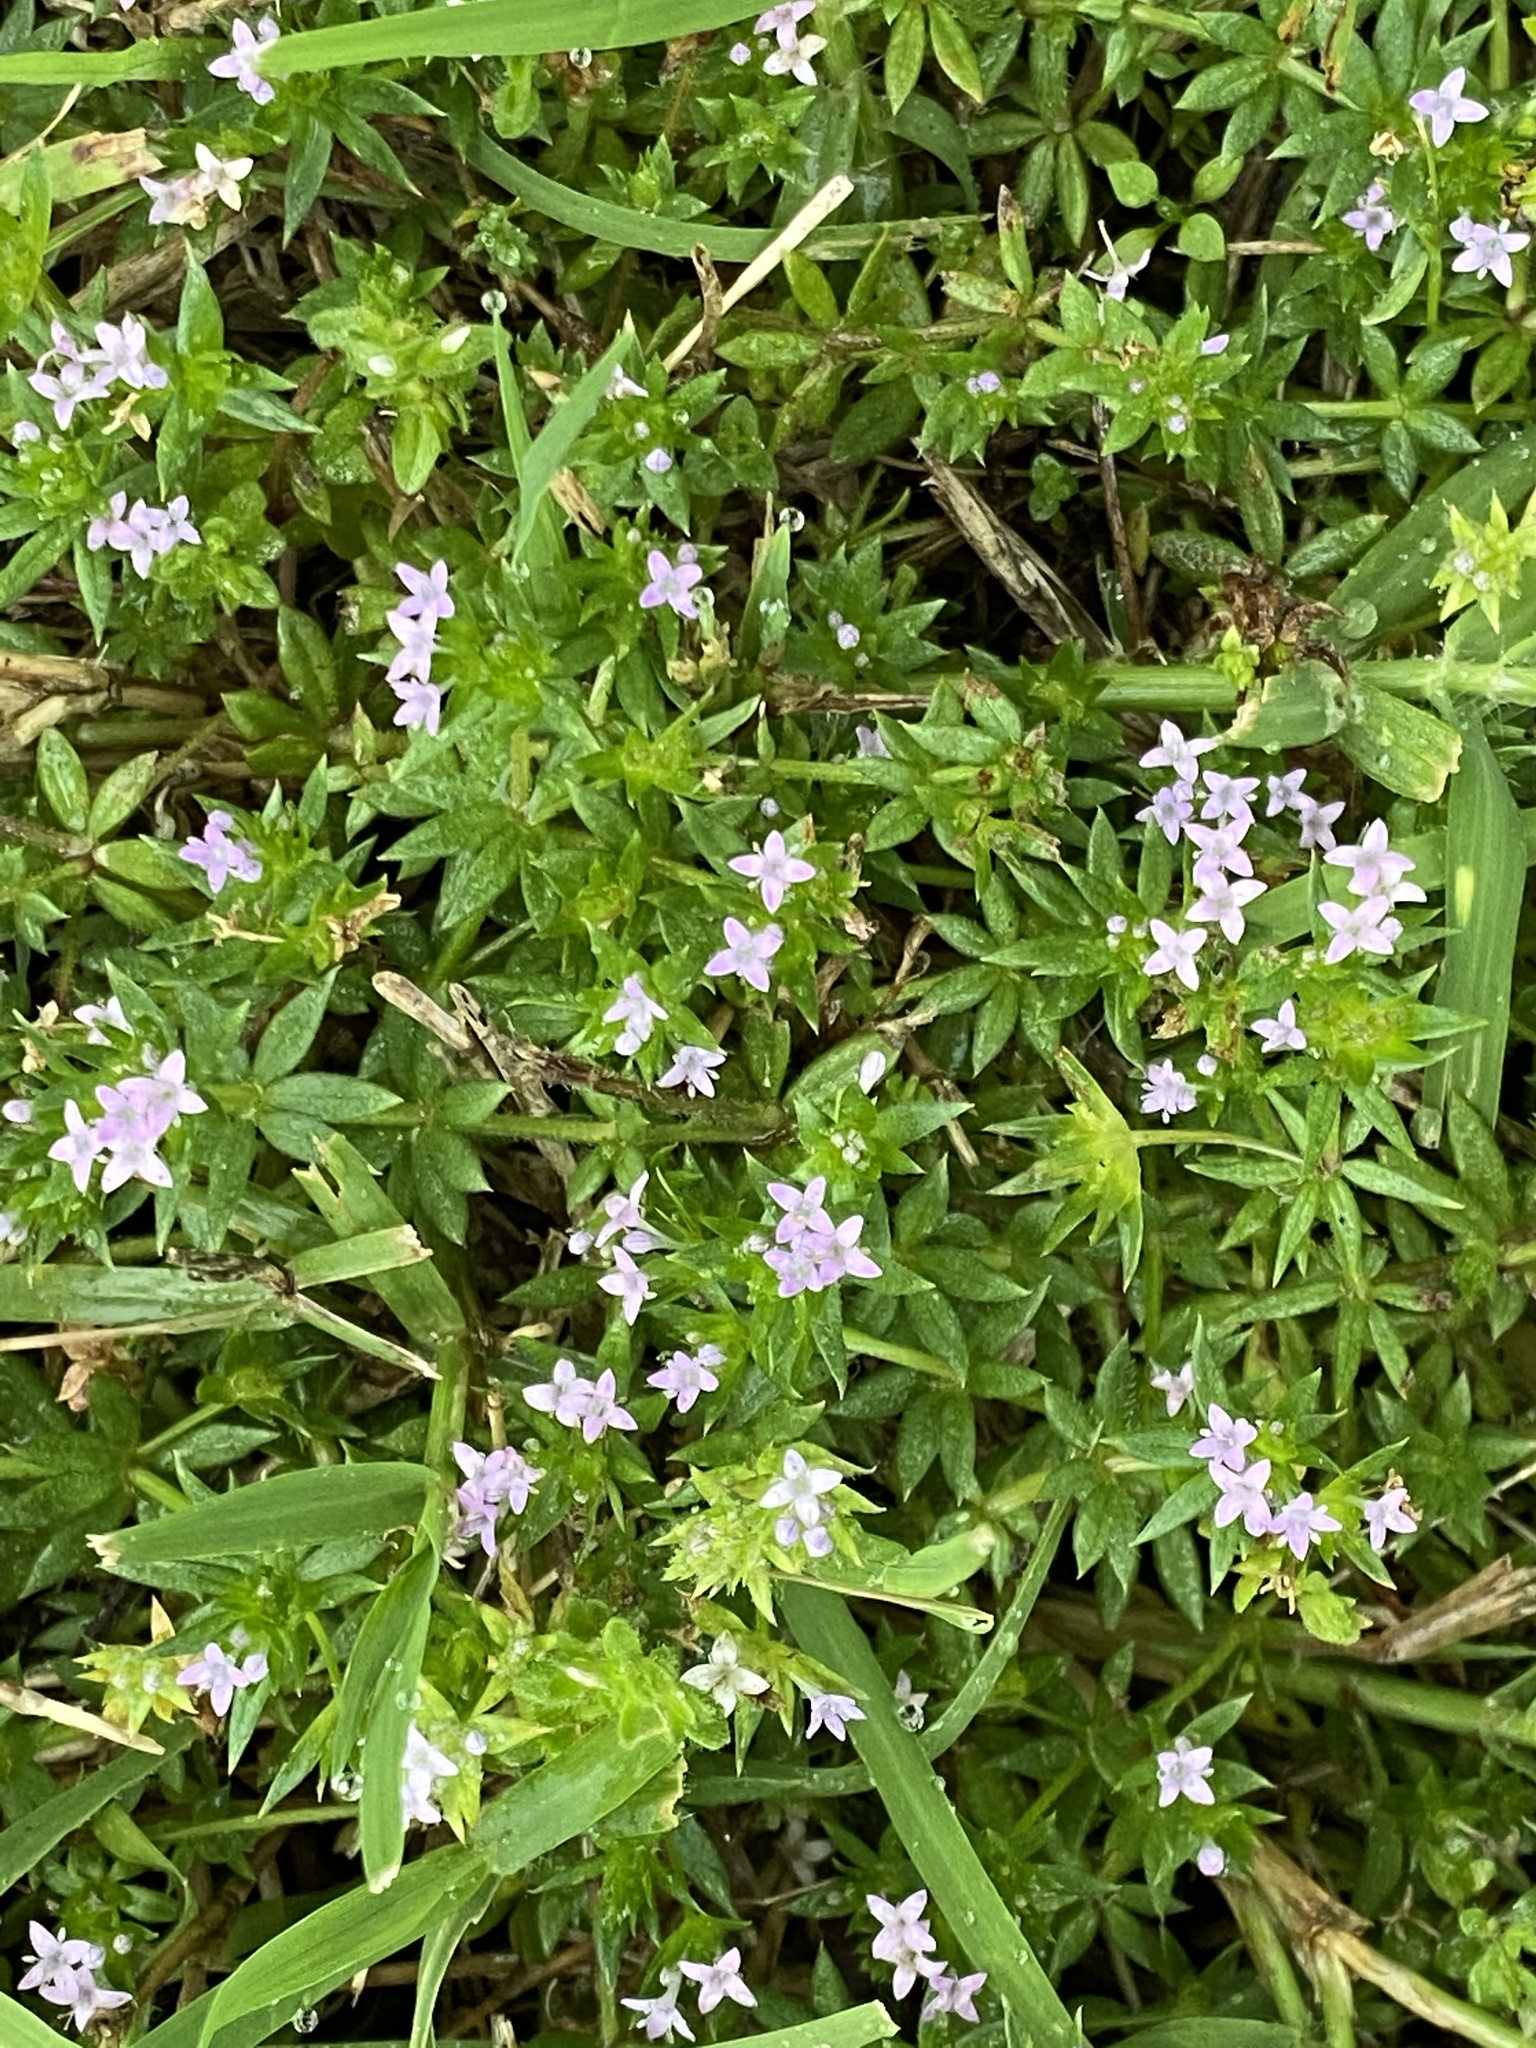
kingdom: Plantae
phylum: Tracheophyta
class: Magnoliopsida
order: Gentianales
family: Rubiaceae
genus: Sherardia
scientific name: Sherardia arvensis
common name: Field madder
